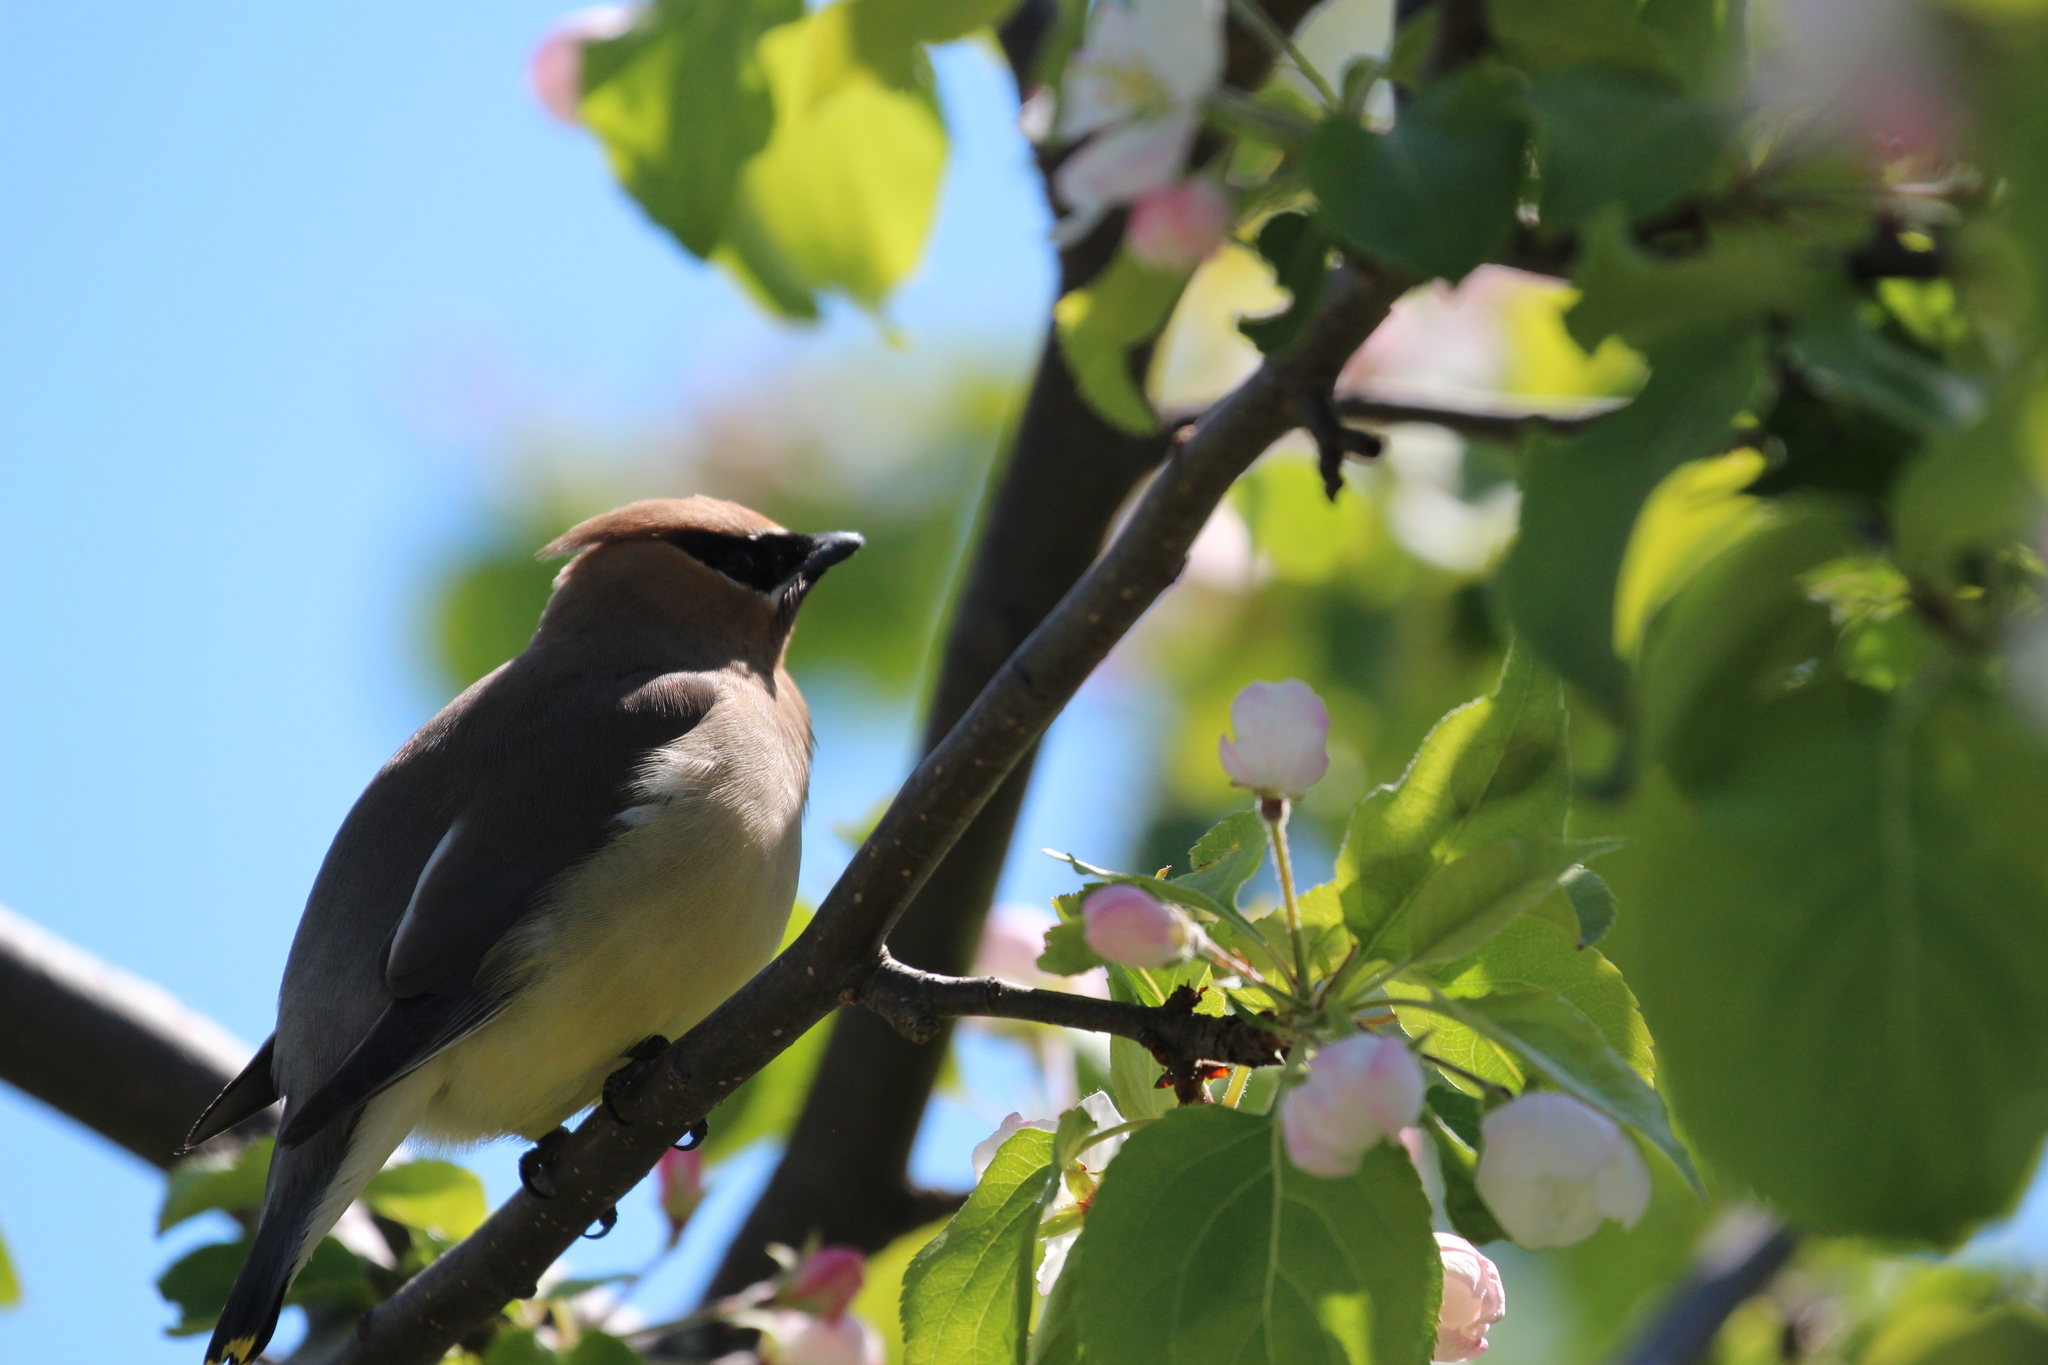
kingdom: Animalia
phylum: Chordata
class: Aves
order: Passeriformes
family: Bombycillidae
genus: Bombycilla
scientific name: Bombycilla cedrorum
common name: Cedar waxwing
